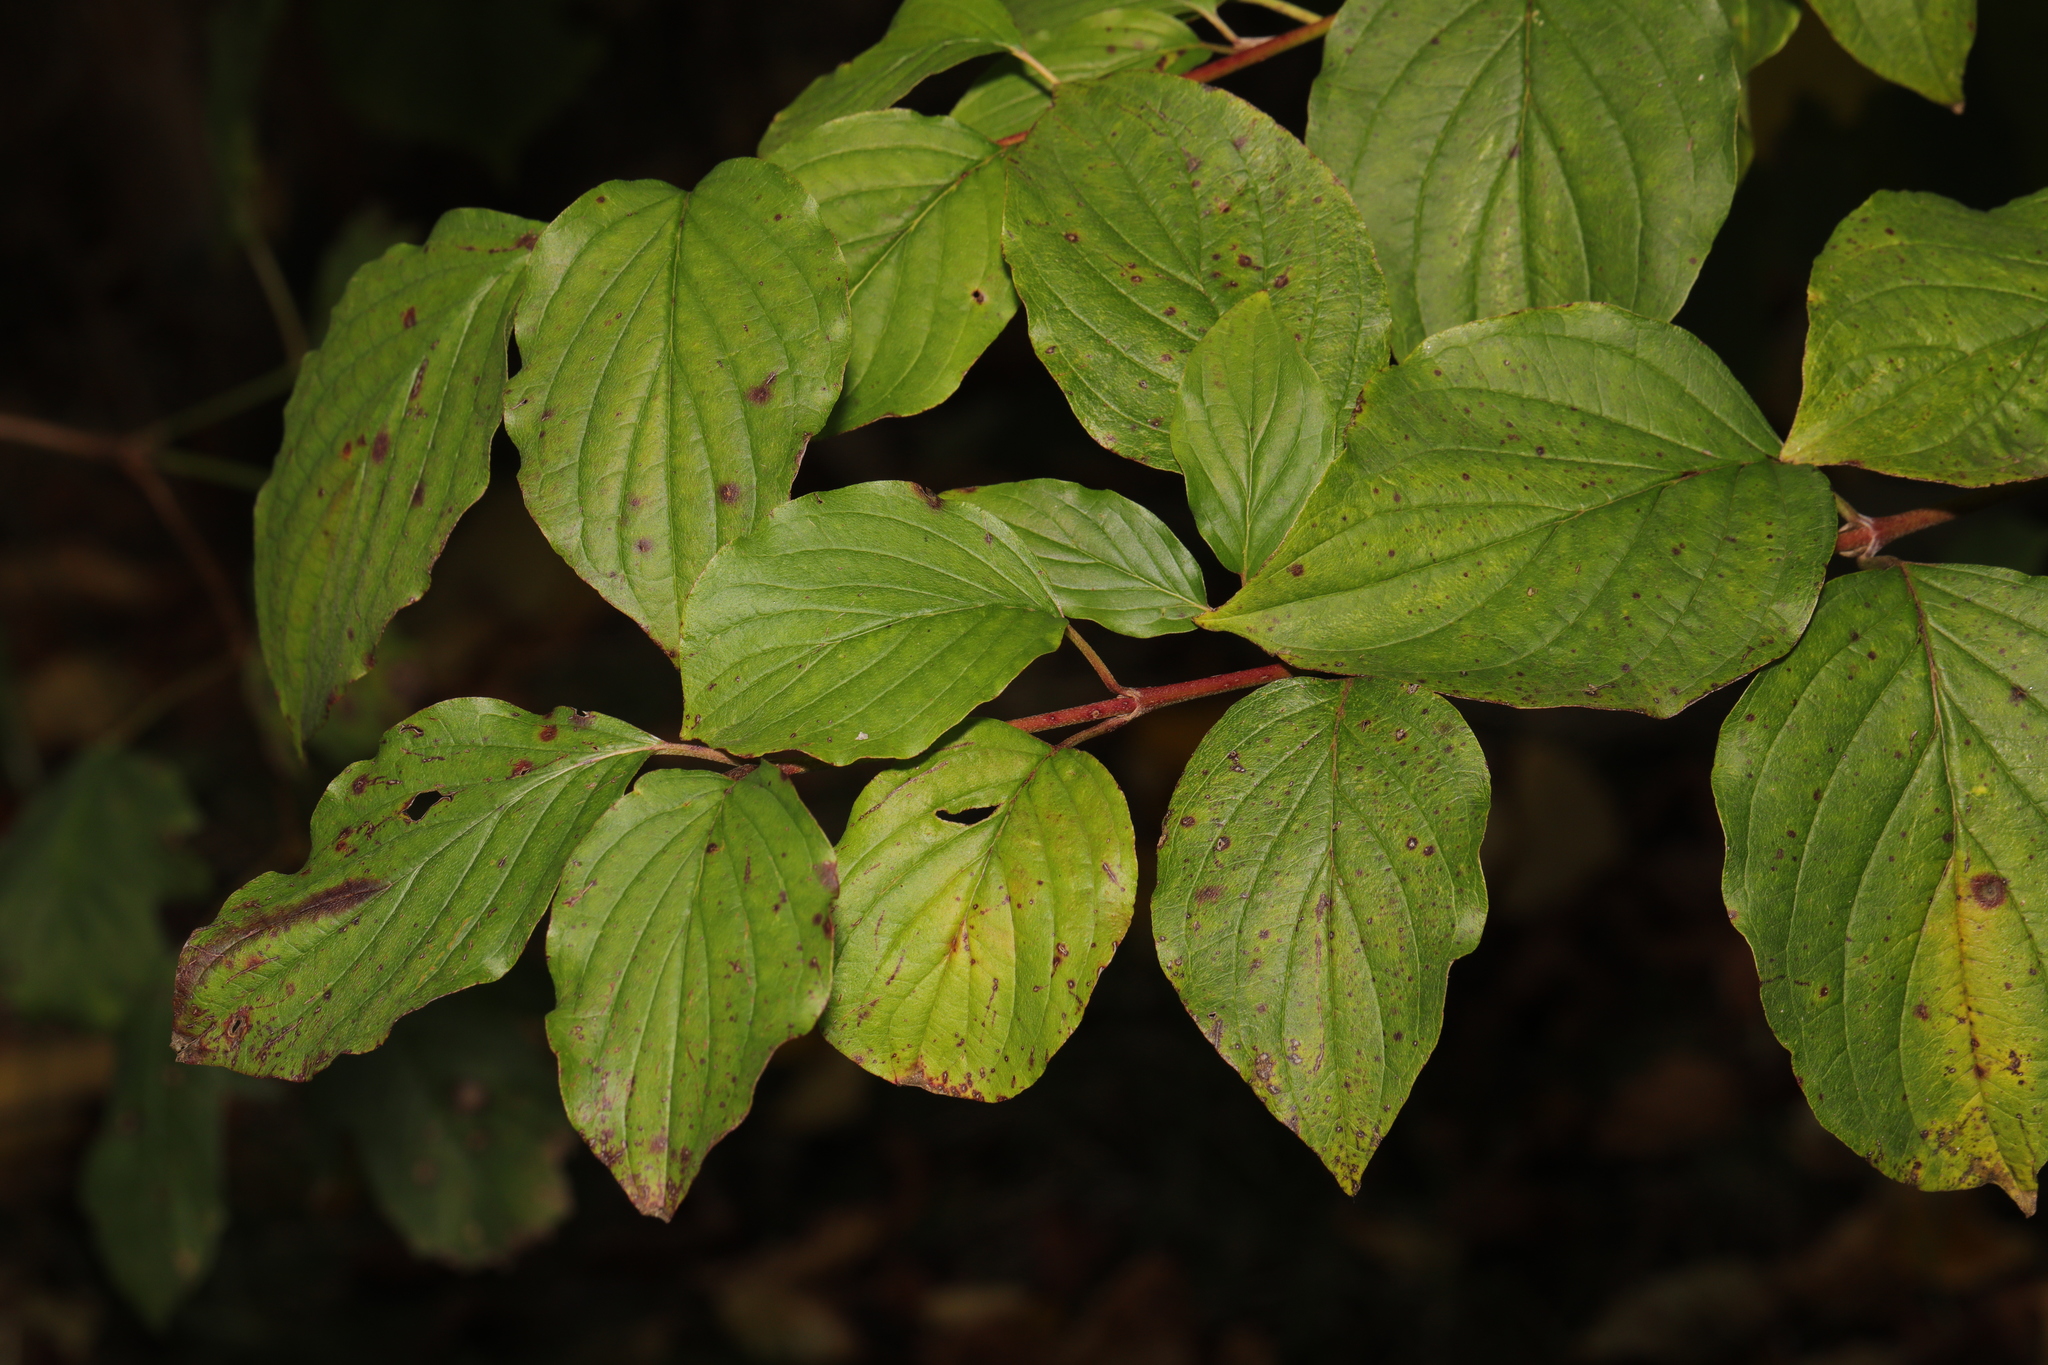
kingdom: Plantae
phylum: Tracheophyta
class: Magnoliopsida
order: Cornales
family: Cornaceae
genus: Cornus
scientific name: Cornus sanguinea
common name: Dogwood
